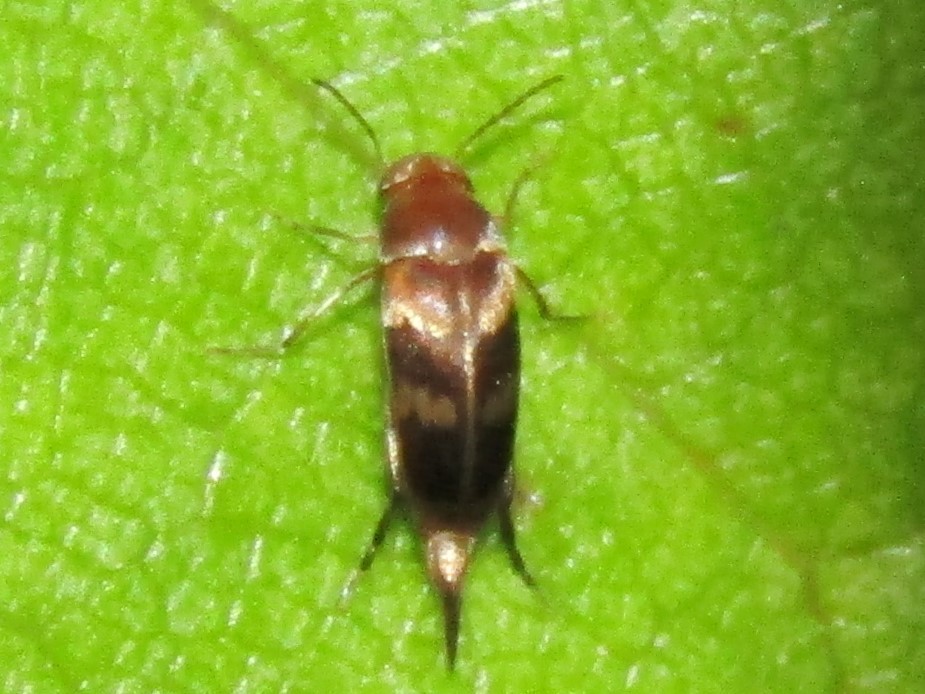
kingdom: Animalia
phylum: Arthropoda
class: Insecta
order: Coleoptera
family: Mordellidae
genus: Falsomordellistena
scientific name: Falsomordellistena liturata
